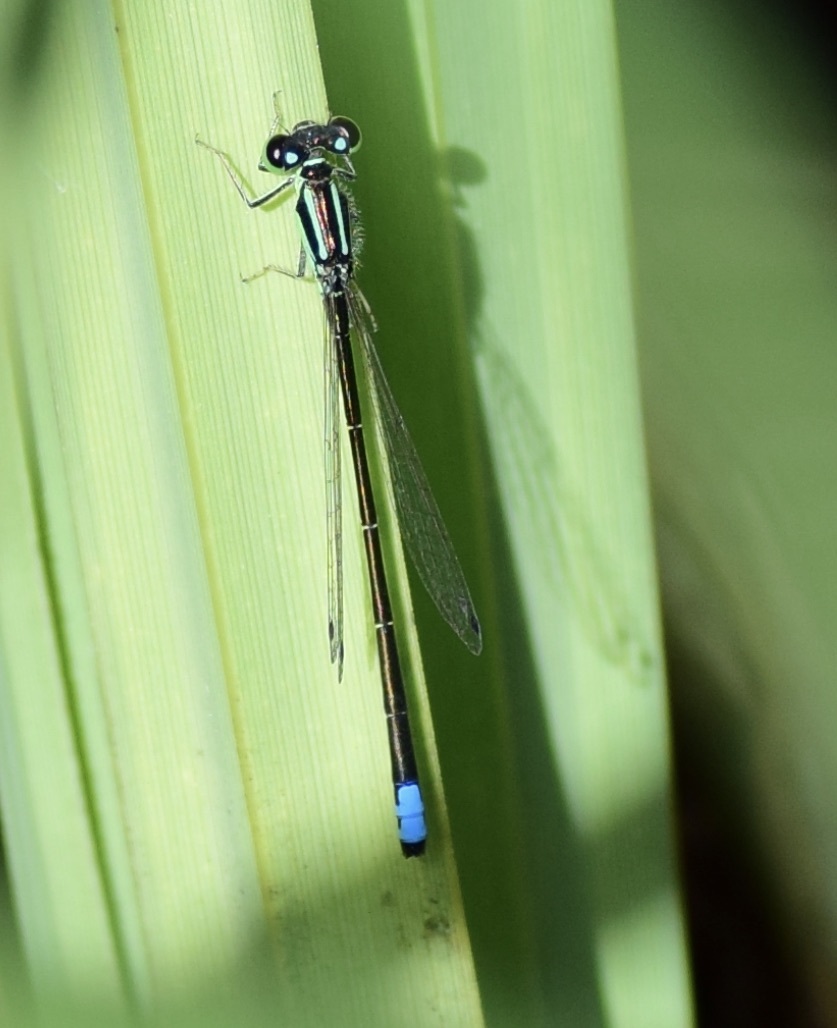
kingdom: Animalia
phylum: Arthropoda
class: Insecta
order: Odonata
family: Coenagrionidae
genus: Ischnura
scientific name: Ischnura verticalis
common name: Eastern forktail
